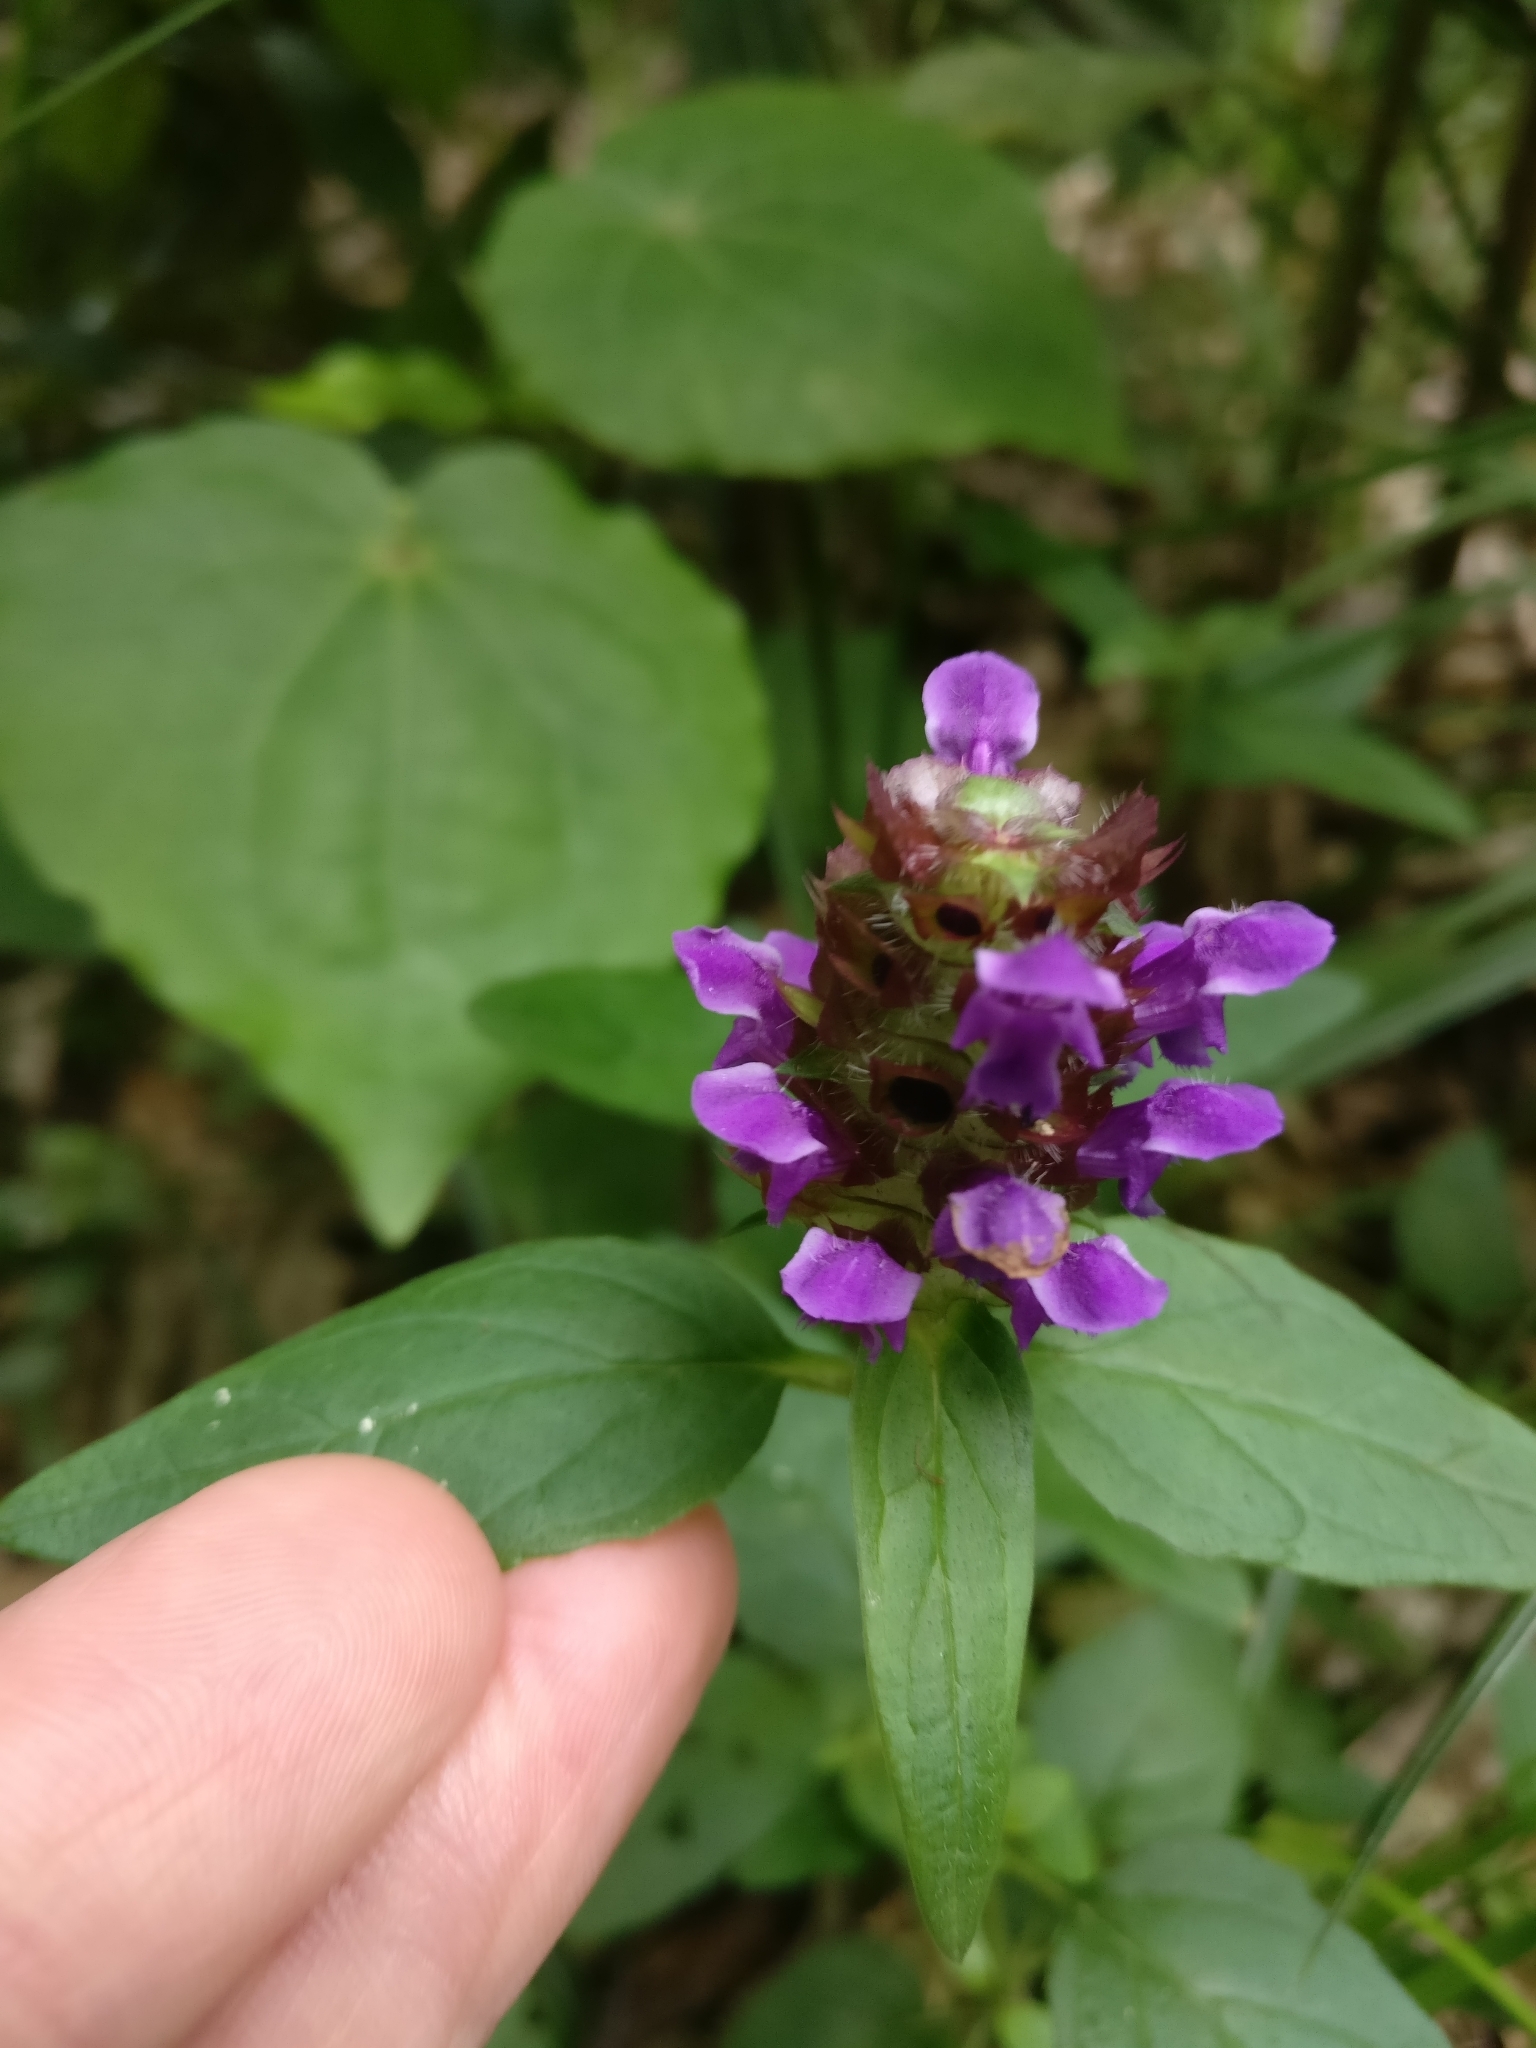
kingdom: Plantae
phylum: Tracheophyta
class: Magnoliopsida
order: Lamiales
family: Lamiaceae
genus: Prunella
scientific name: Prunella vulgaris
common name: Heal-all
